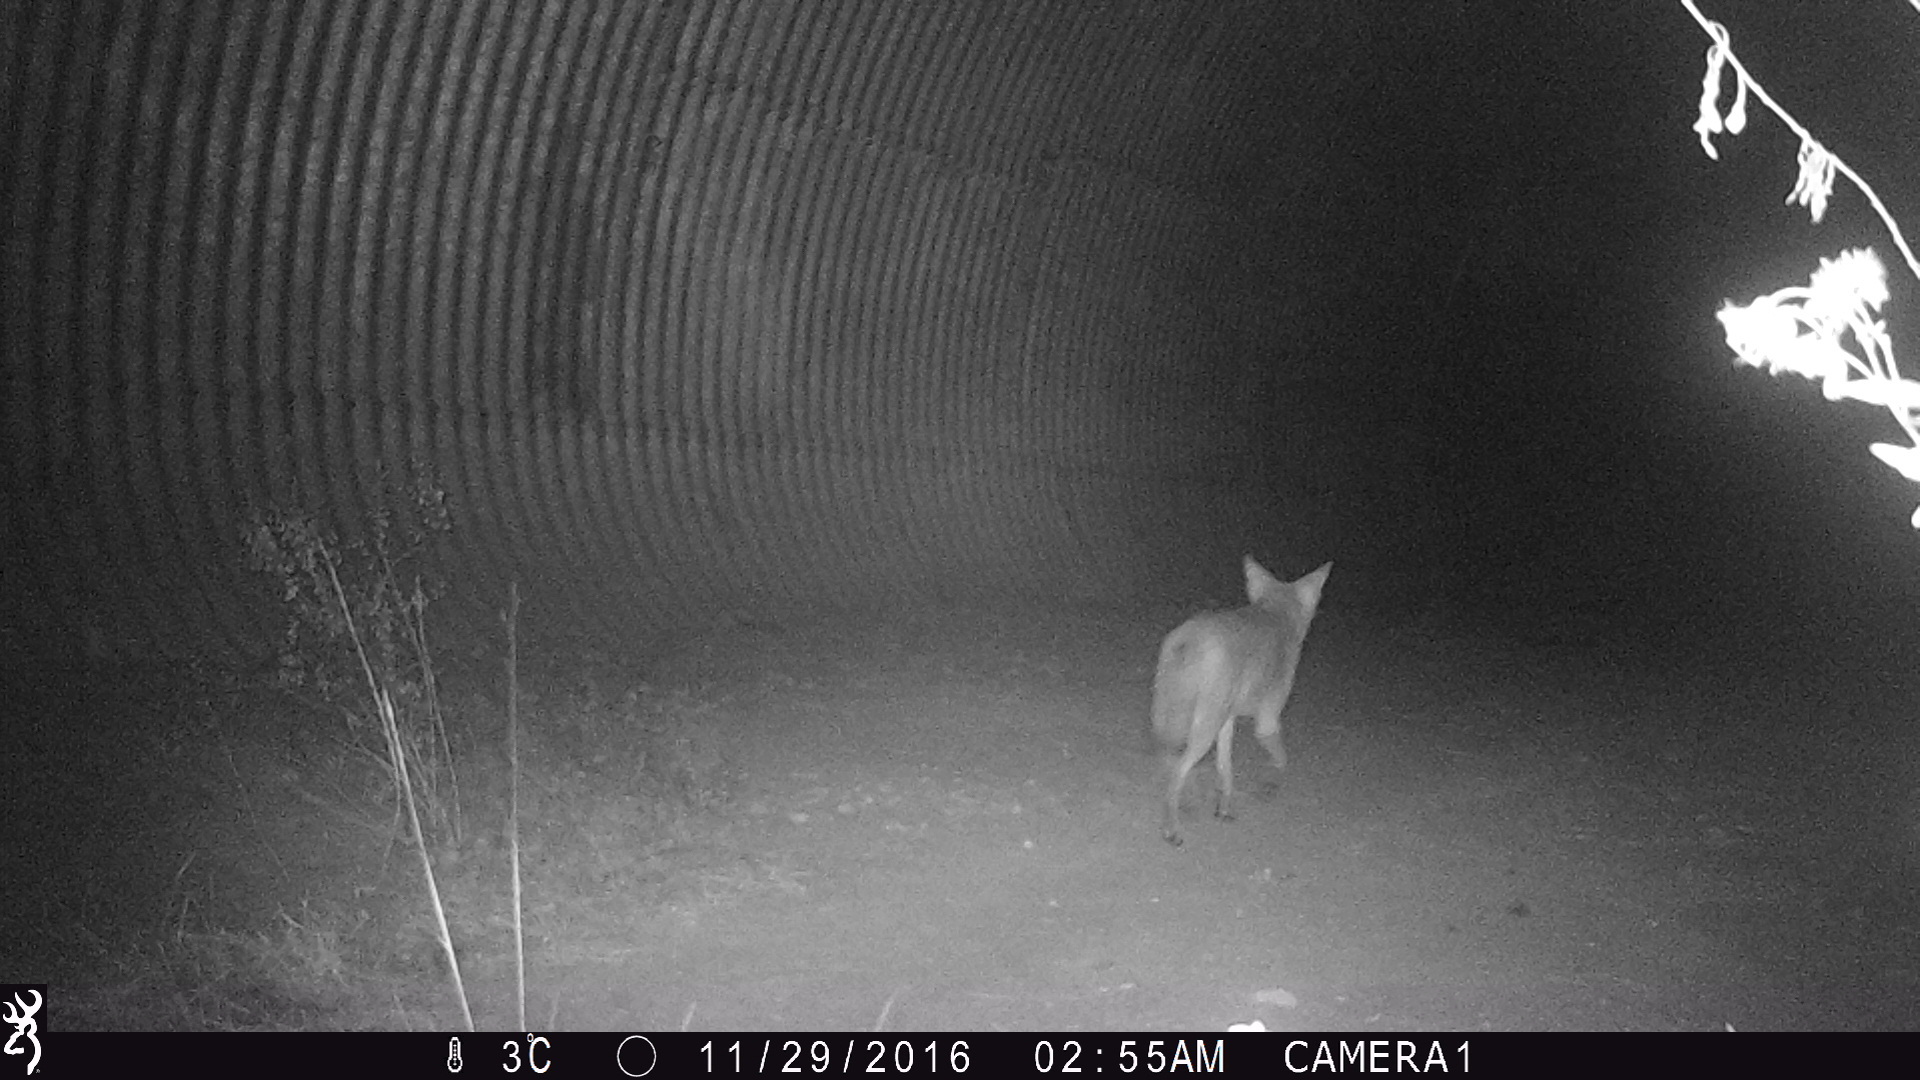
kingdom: Animalia
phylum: Chordata
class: Mammalia
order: Carnivora
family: Canidae
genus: Canis
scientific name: Canis latrans
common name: Coyote
